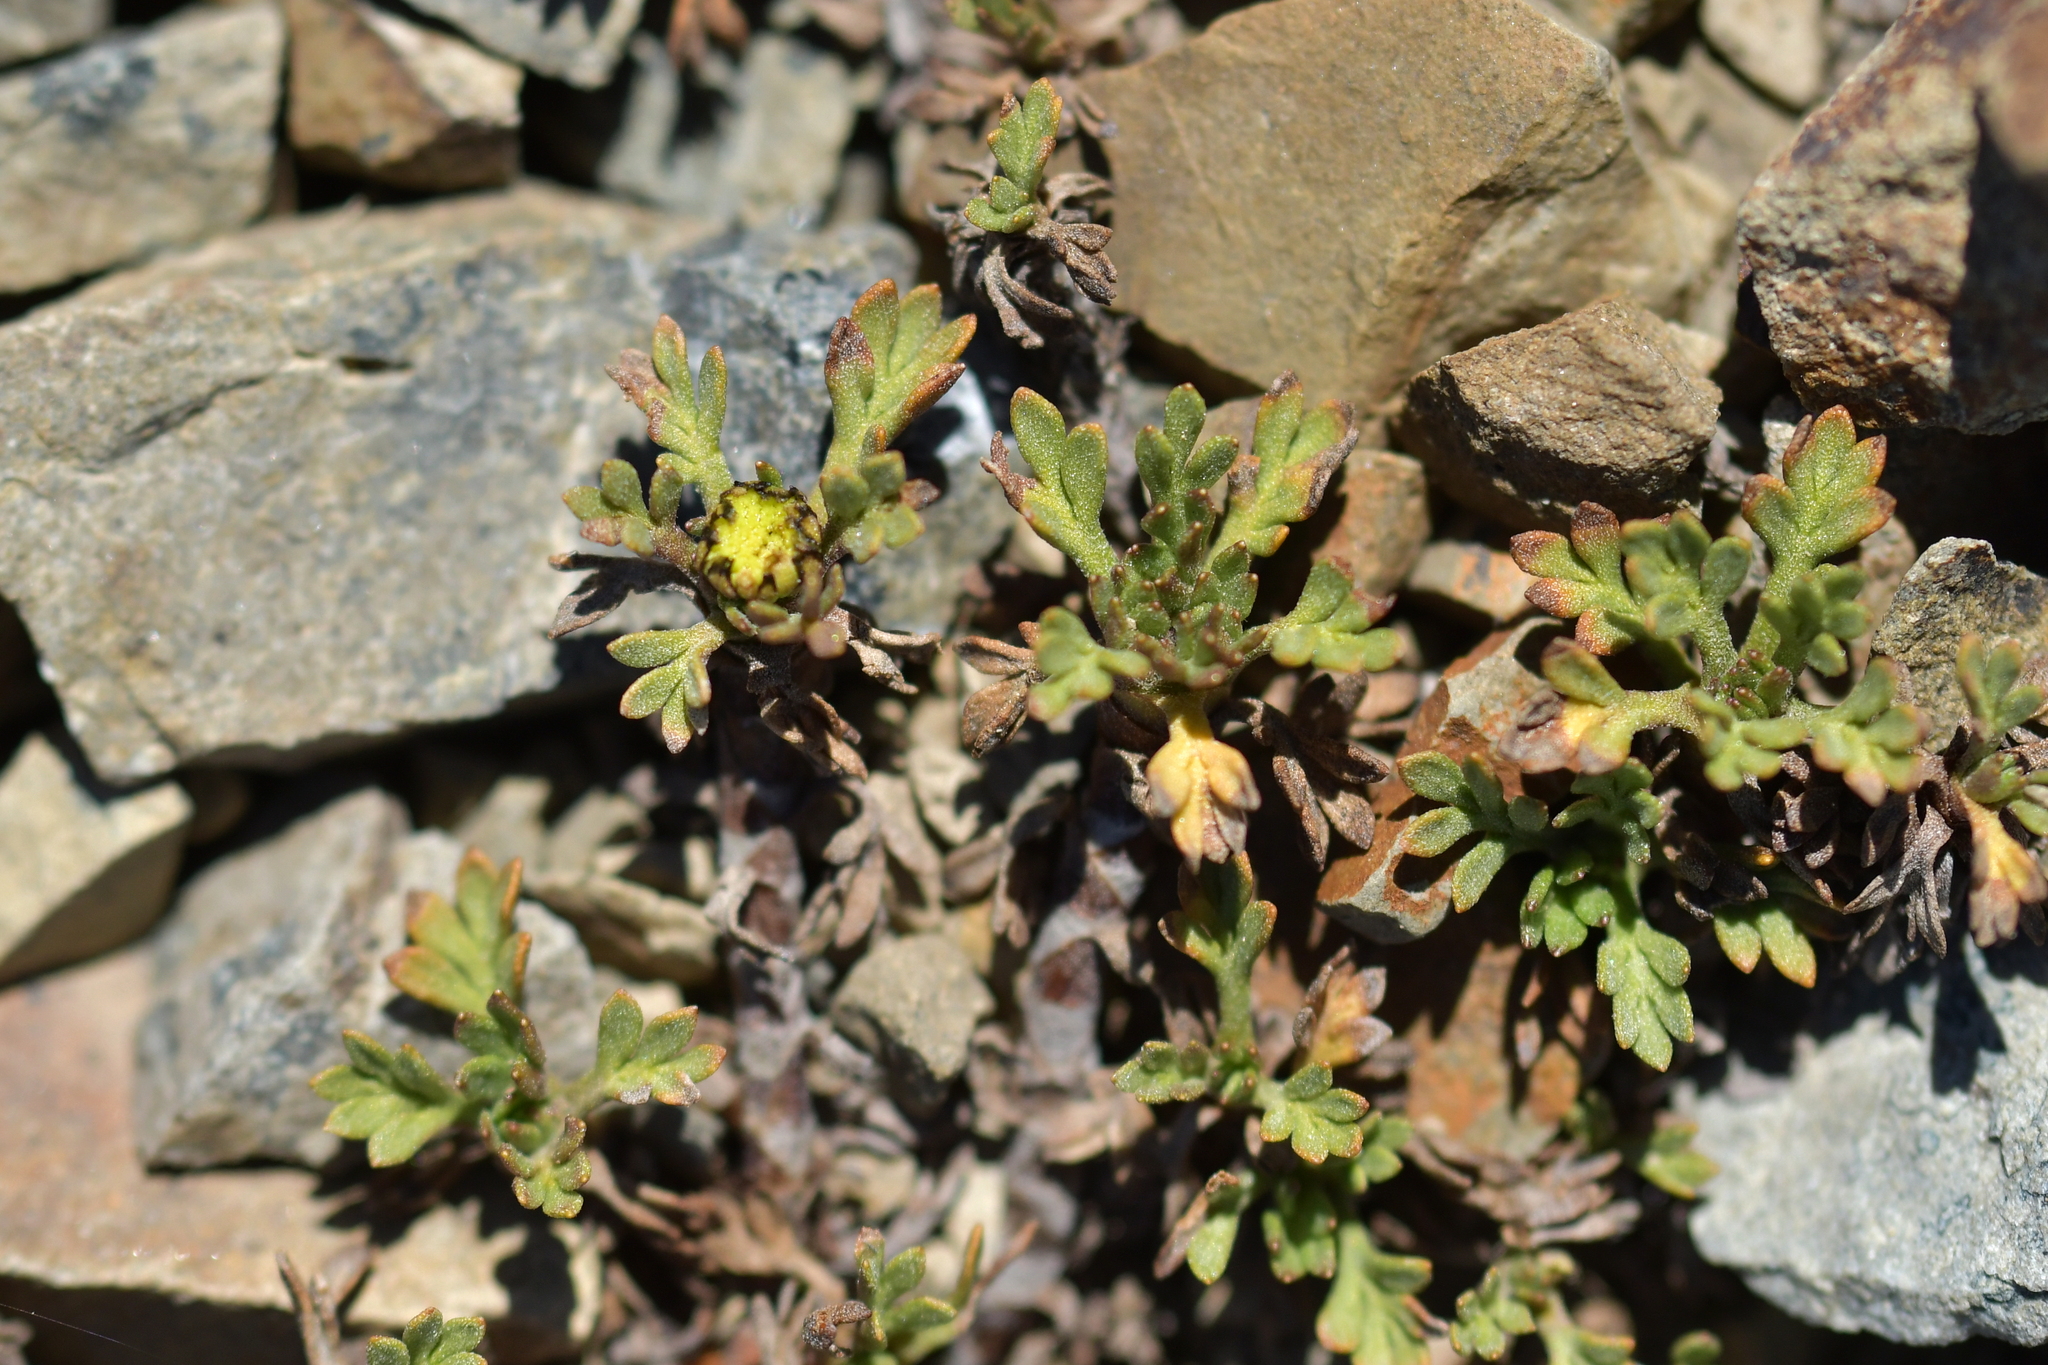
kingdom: Plantae
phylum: Tracheophyta
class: Magnoliopsida
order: Asterales
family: Asteraceae
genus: Leptinella
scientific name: Leptinella pyrethrifolia
